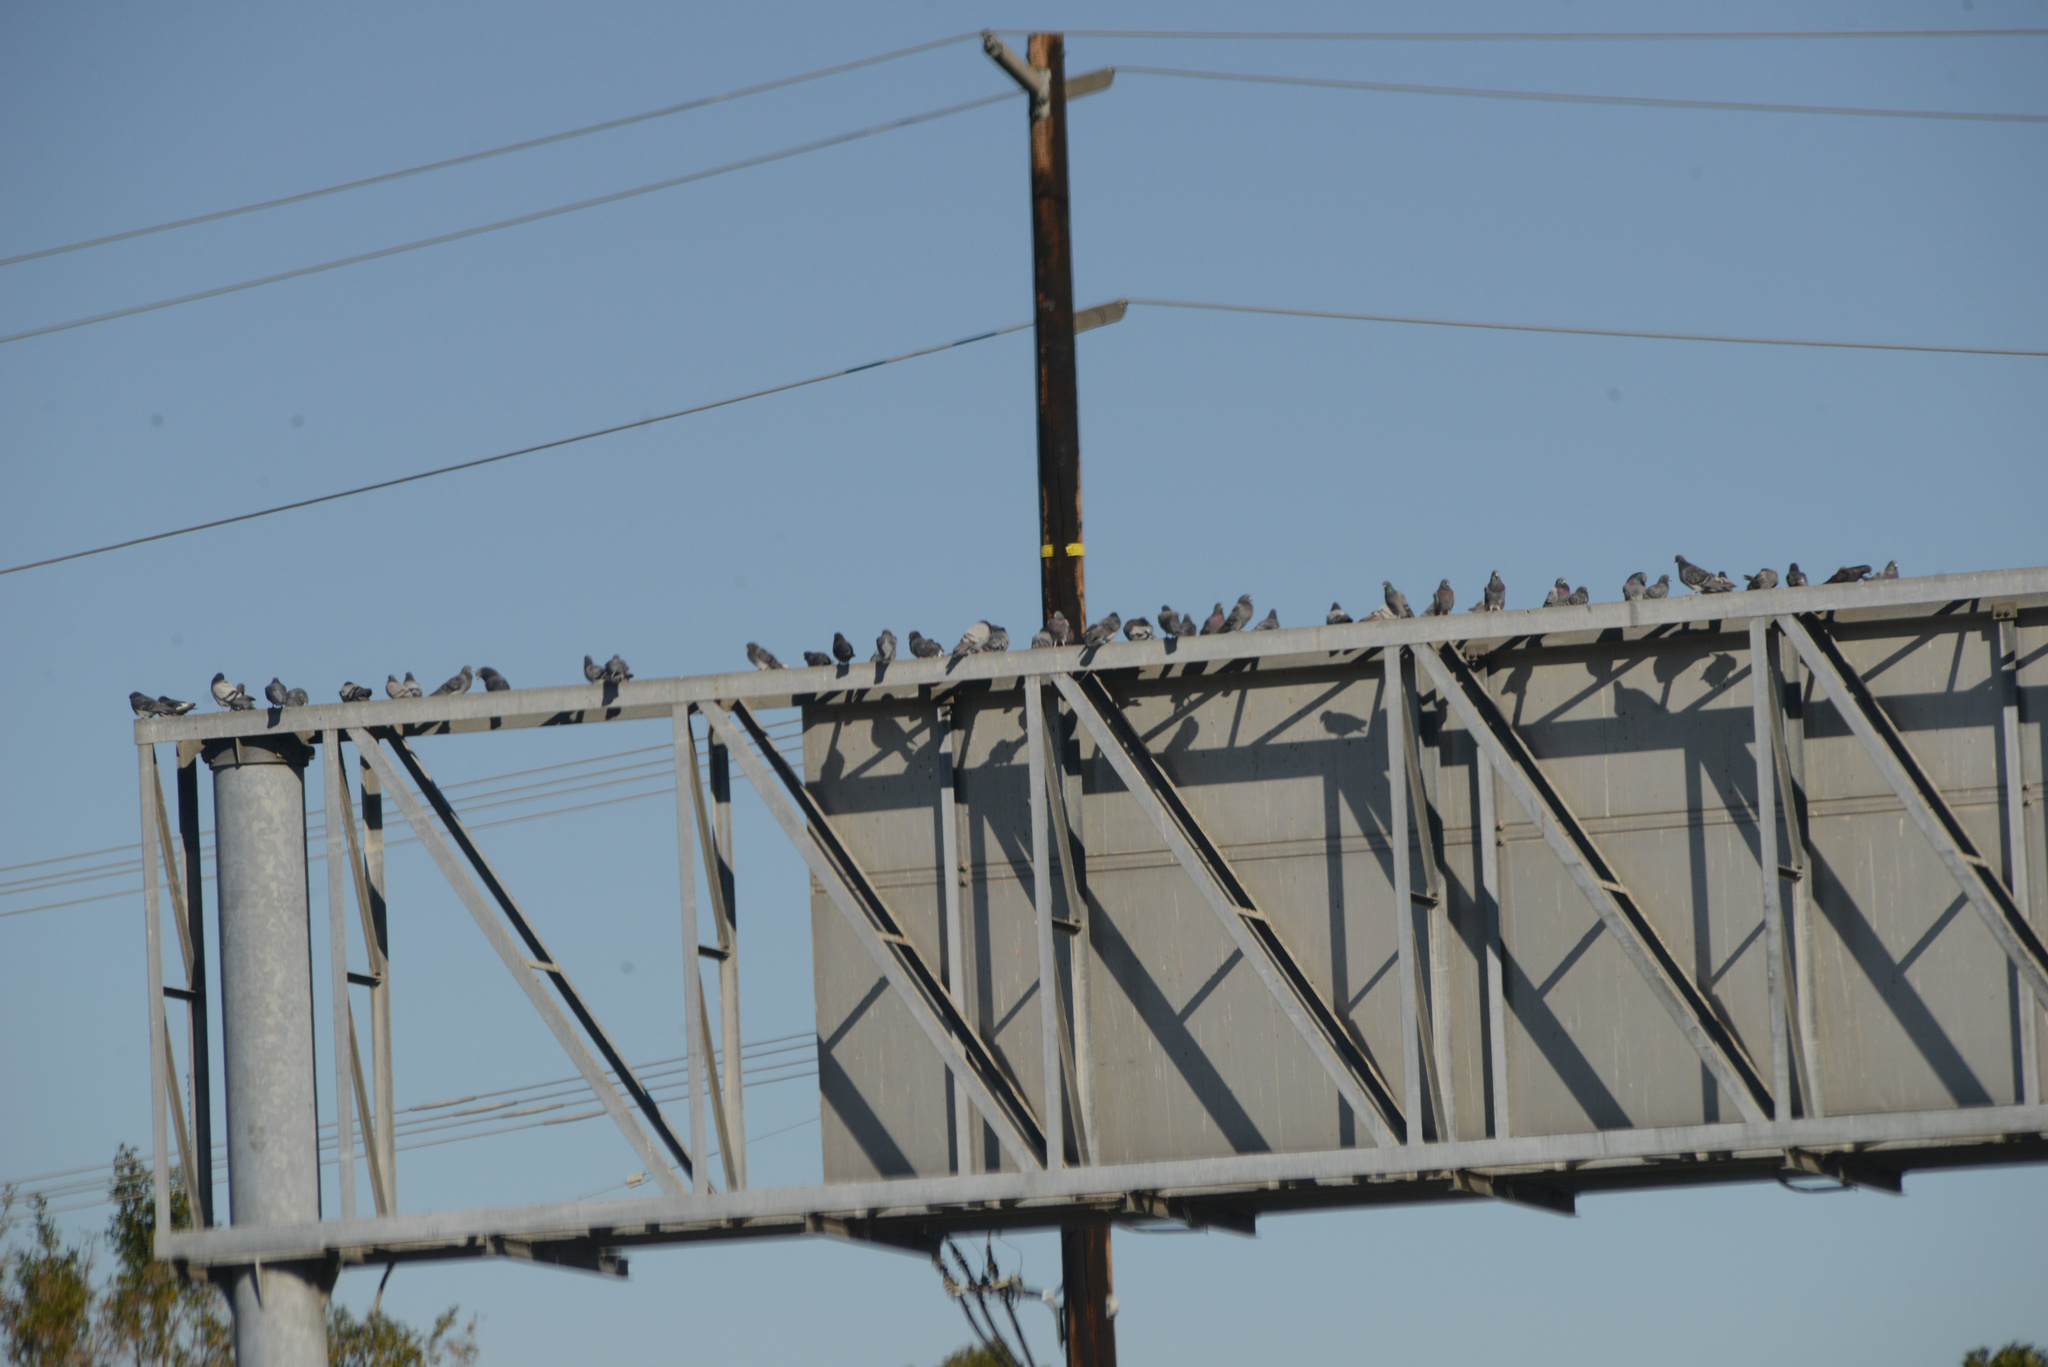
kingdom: Animalia
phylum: Chordata
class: Aves
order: Columbiformes
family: Columbidae
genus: Columba
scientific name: Columba livia
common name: Rock pigeon
